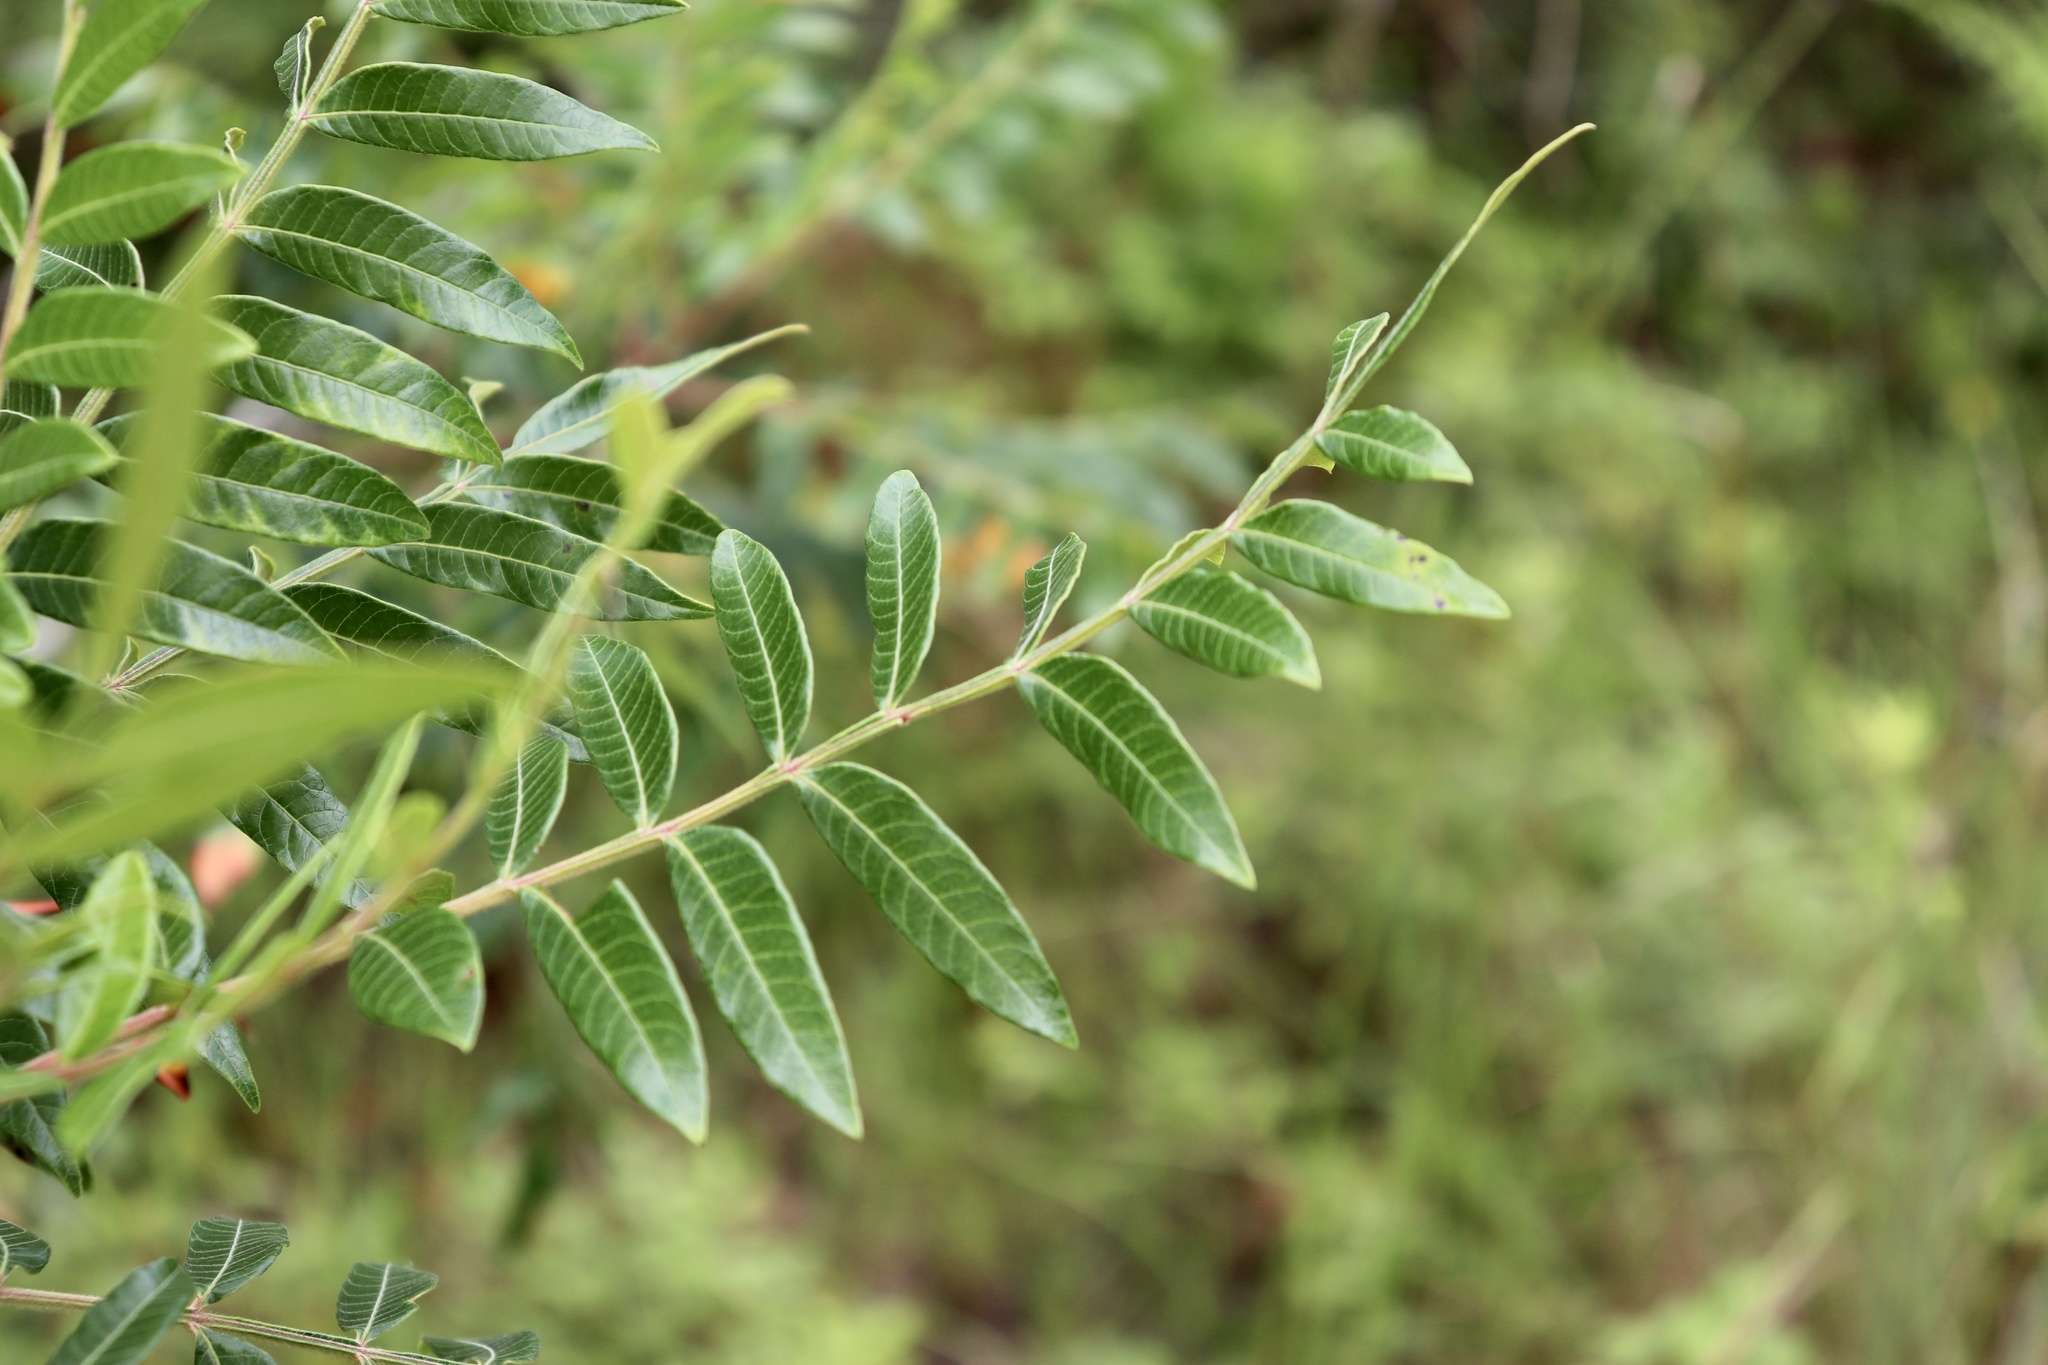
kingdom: Plantae
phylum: Tracheophyta
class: Magnoliopsida
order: Sapindales
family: Anacardiaceae
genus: Rhus
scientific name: Rhus copallina
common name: Shining sumac
